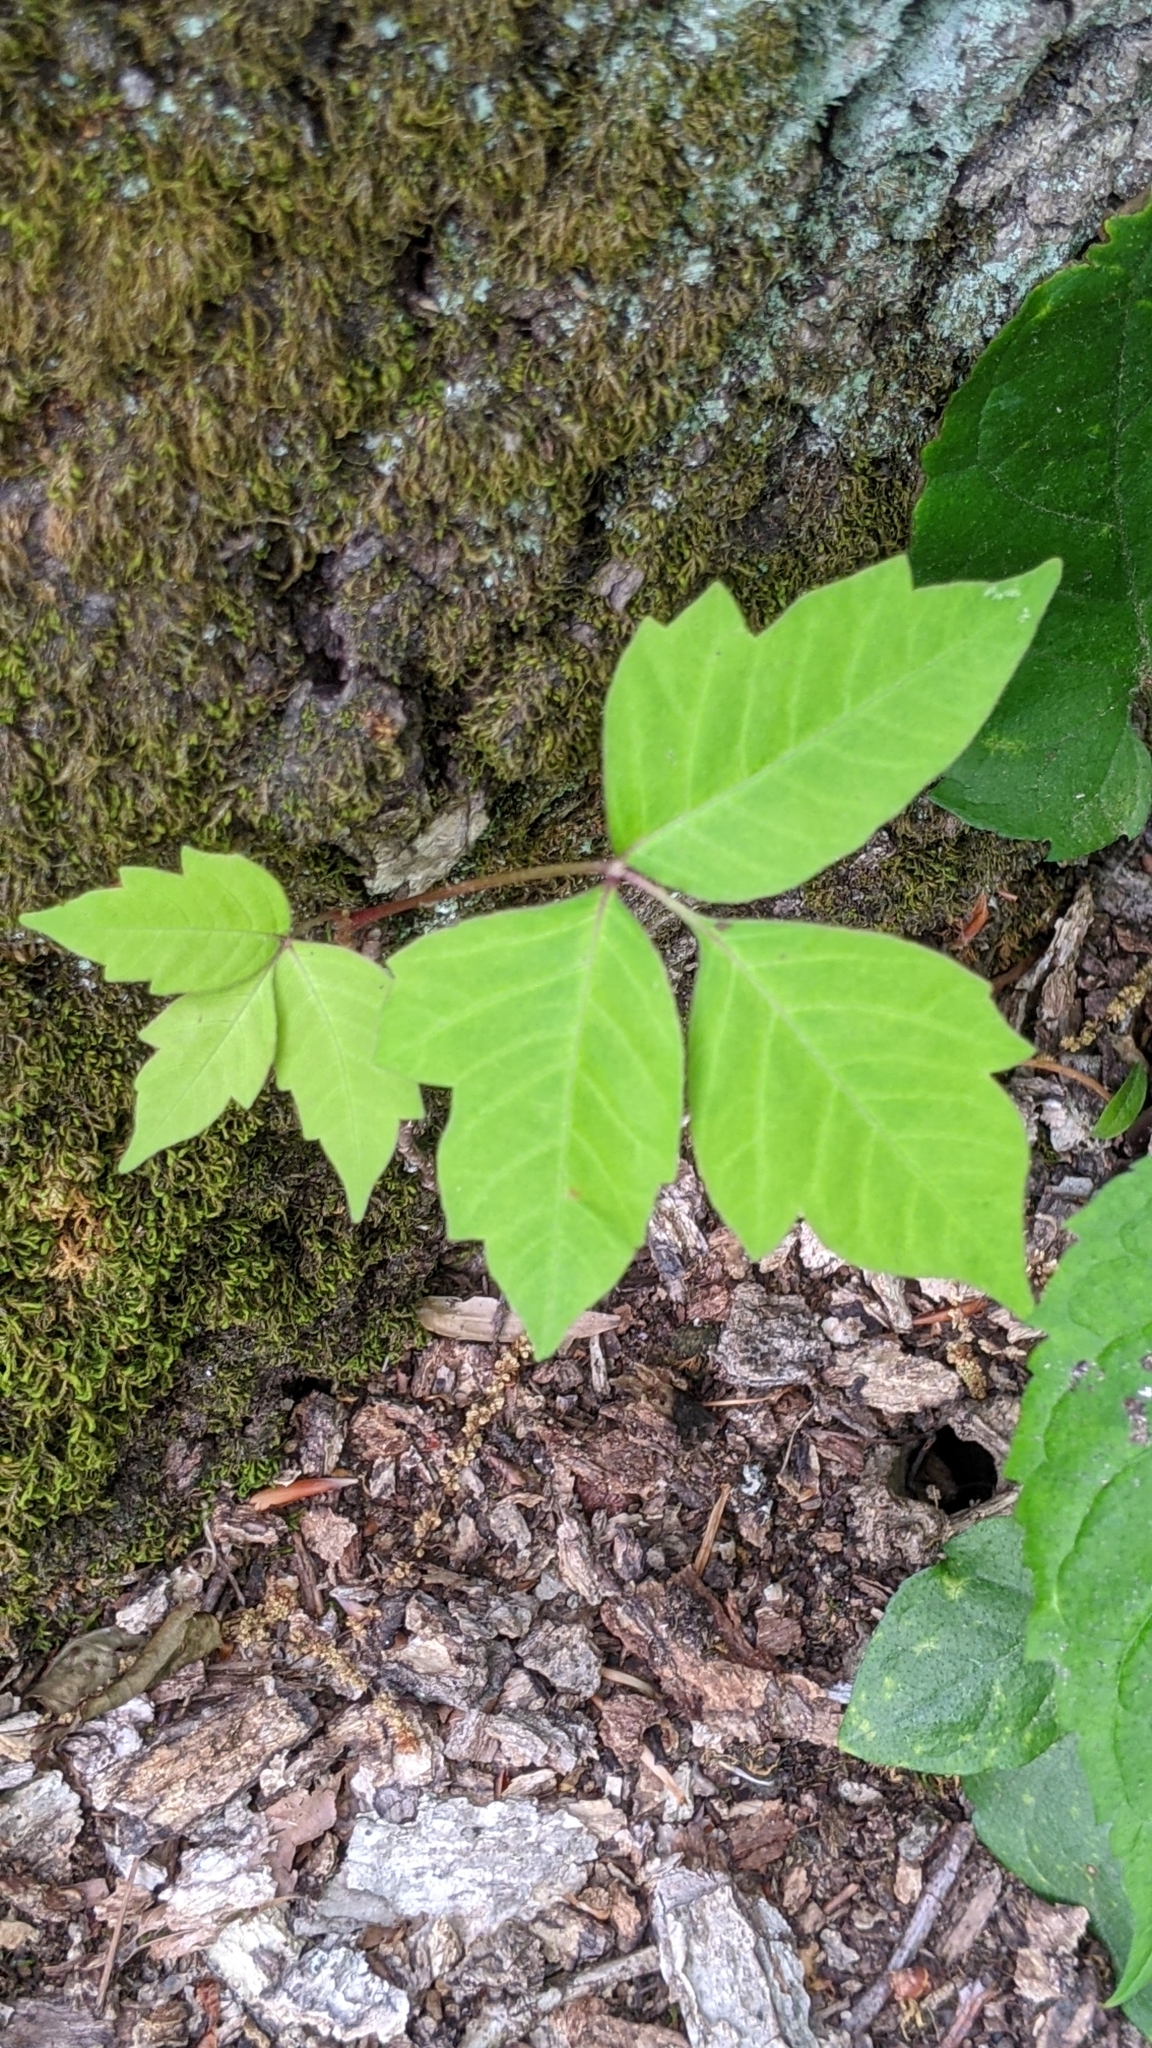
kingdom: Plantae
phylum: Tracheophyta
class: Magnoliopsida
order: Sapindales
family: Anacardiaceae
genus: Toxicodendron
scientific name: Toxicodendron radicans
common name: Poison ivy
